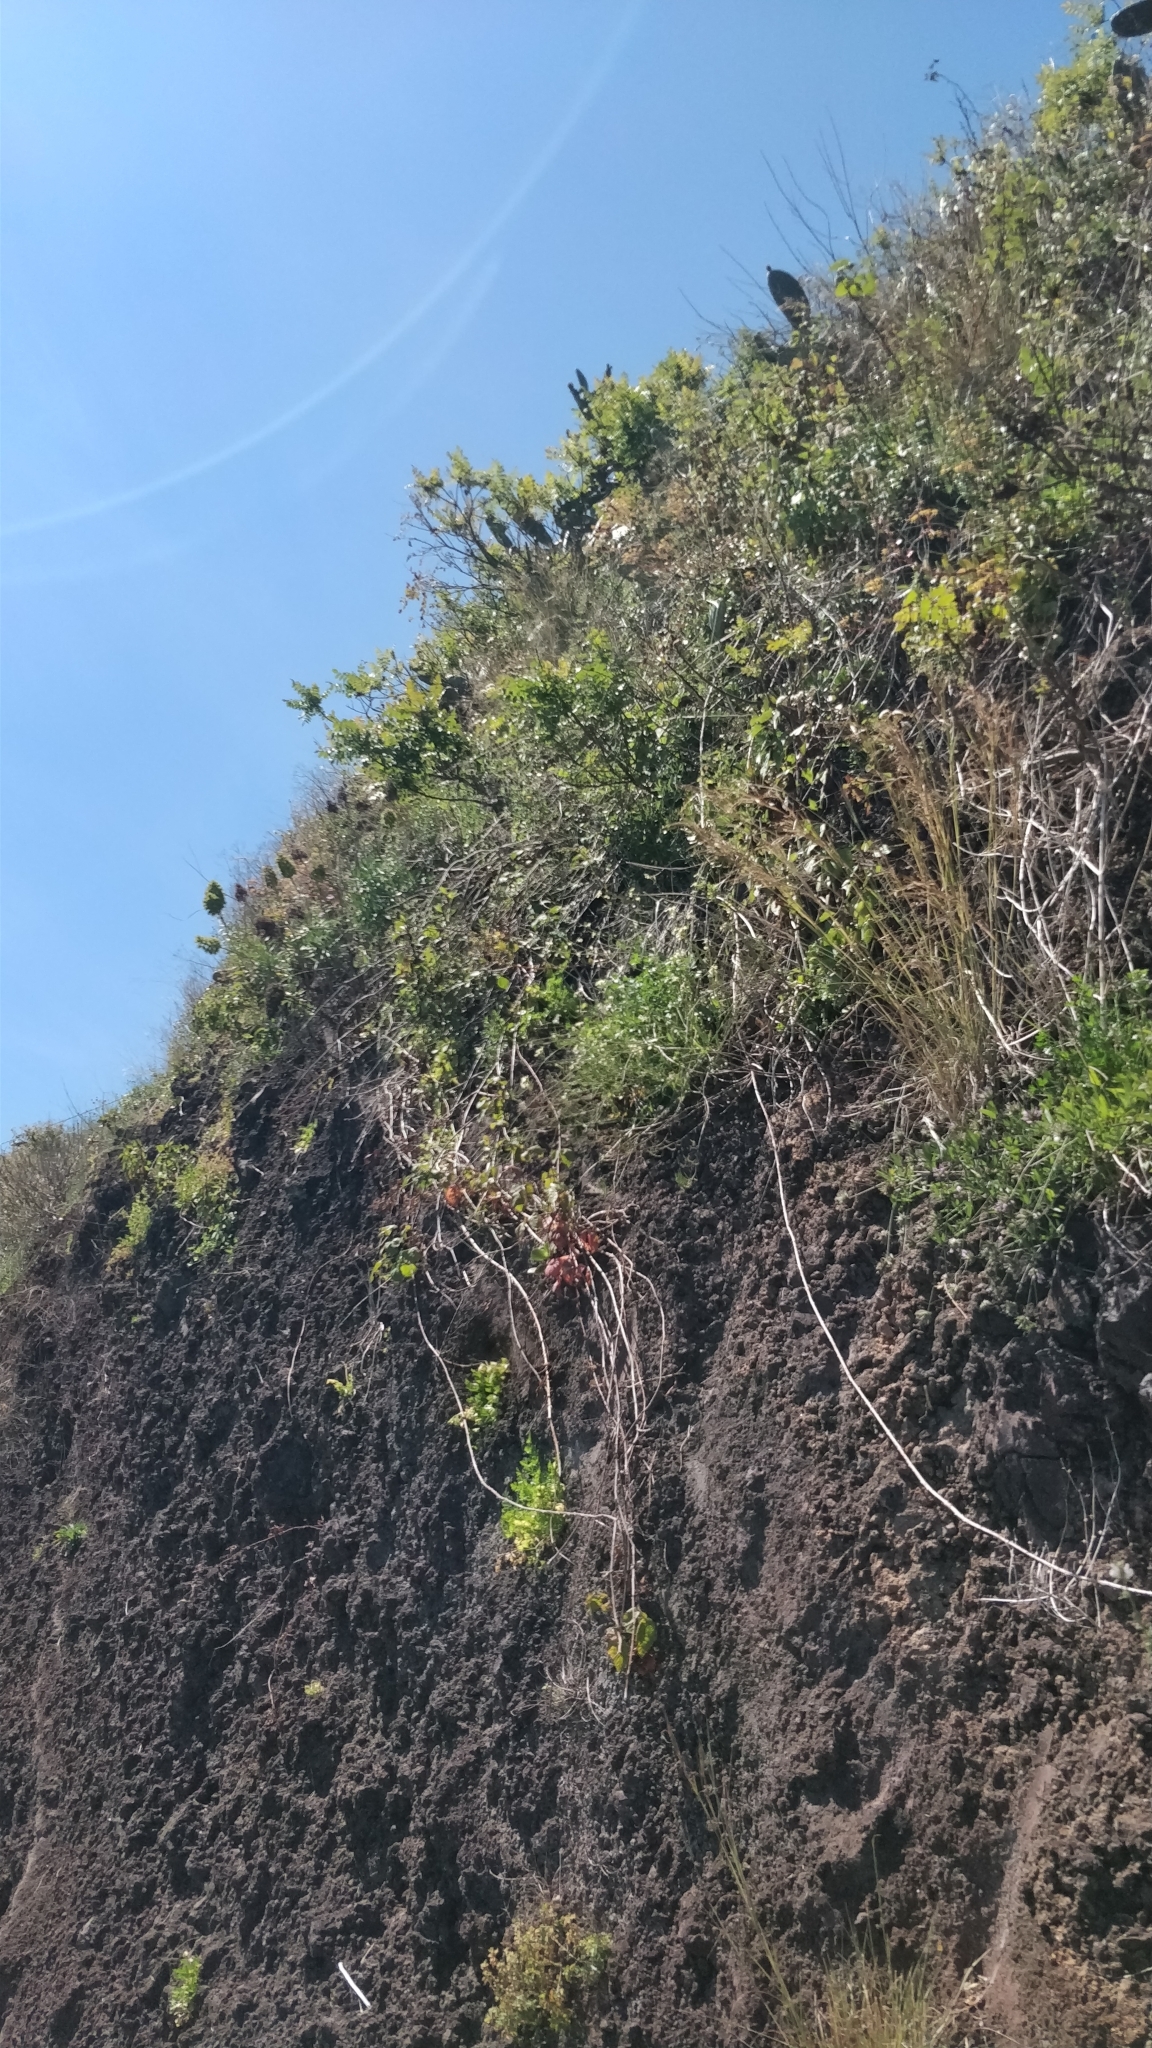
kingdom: Plantae
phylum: Tracheophyta
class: Magnoliopsida
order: Boraginales
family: Boraginaceae
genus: Echium
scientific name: Echium nervosum
